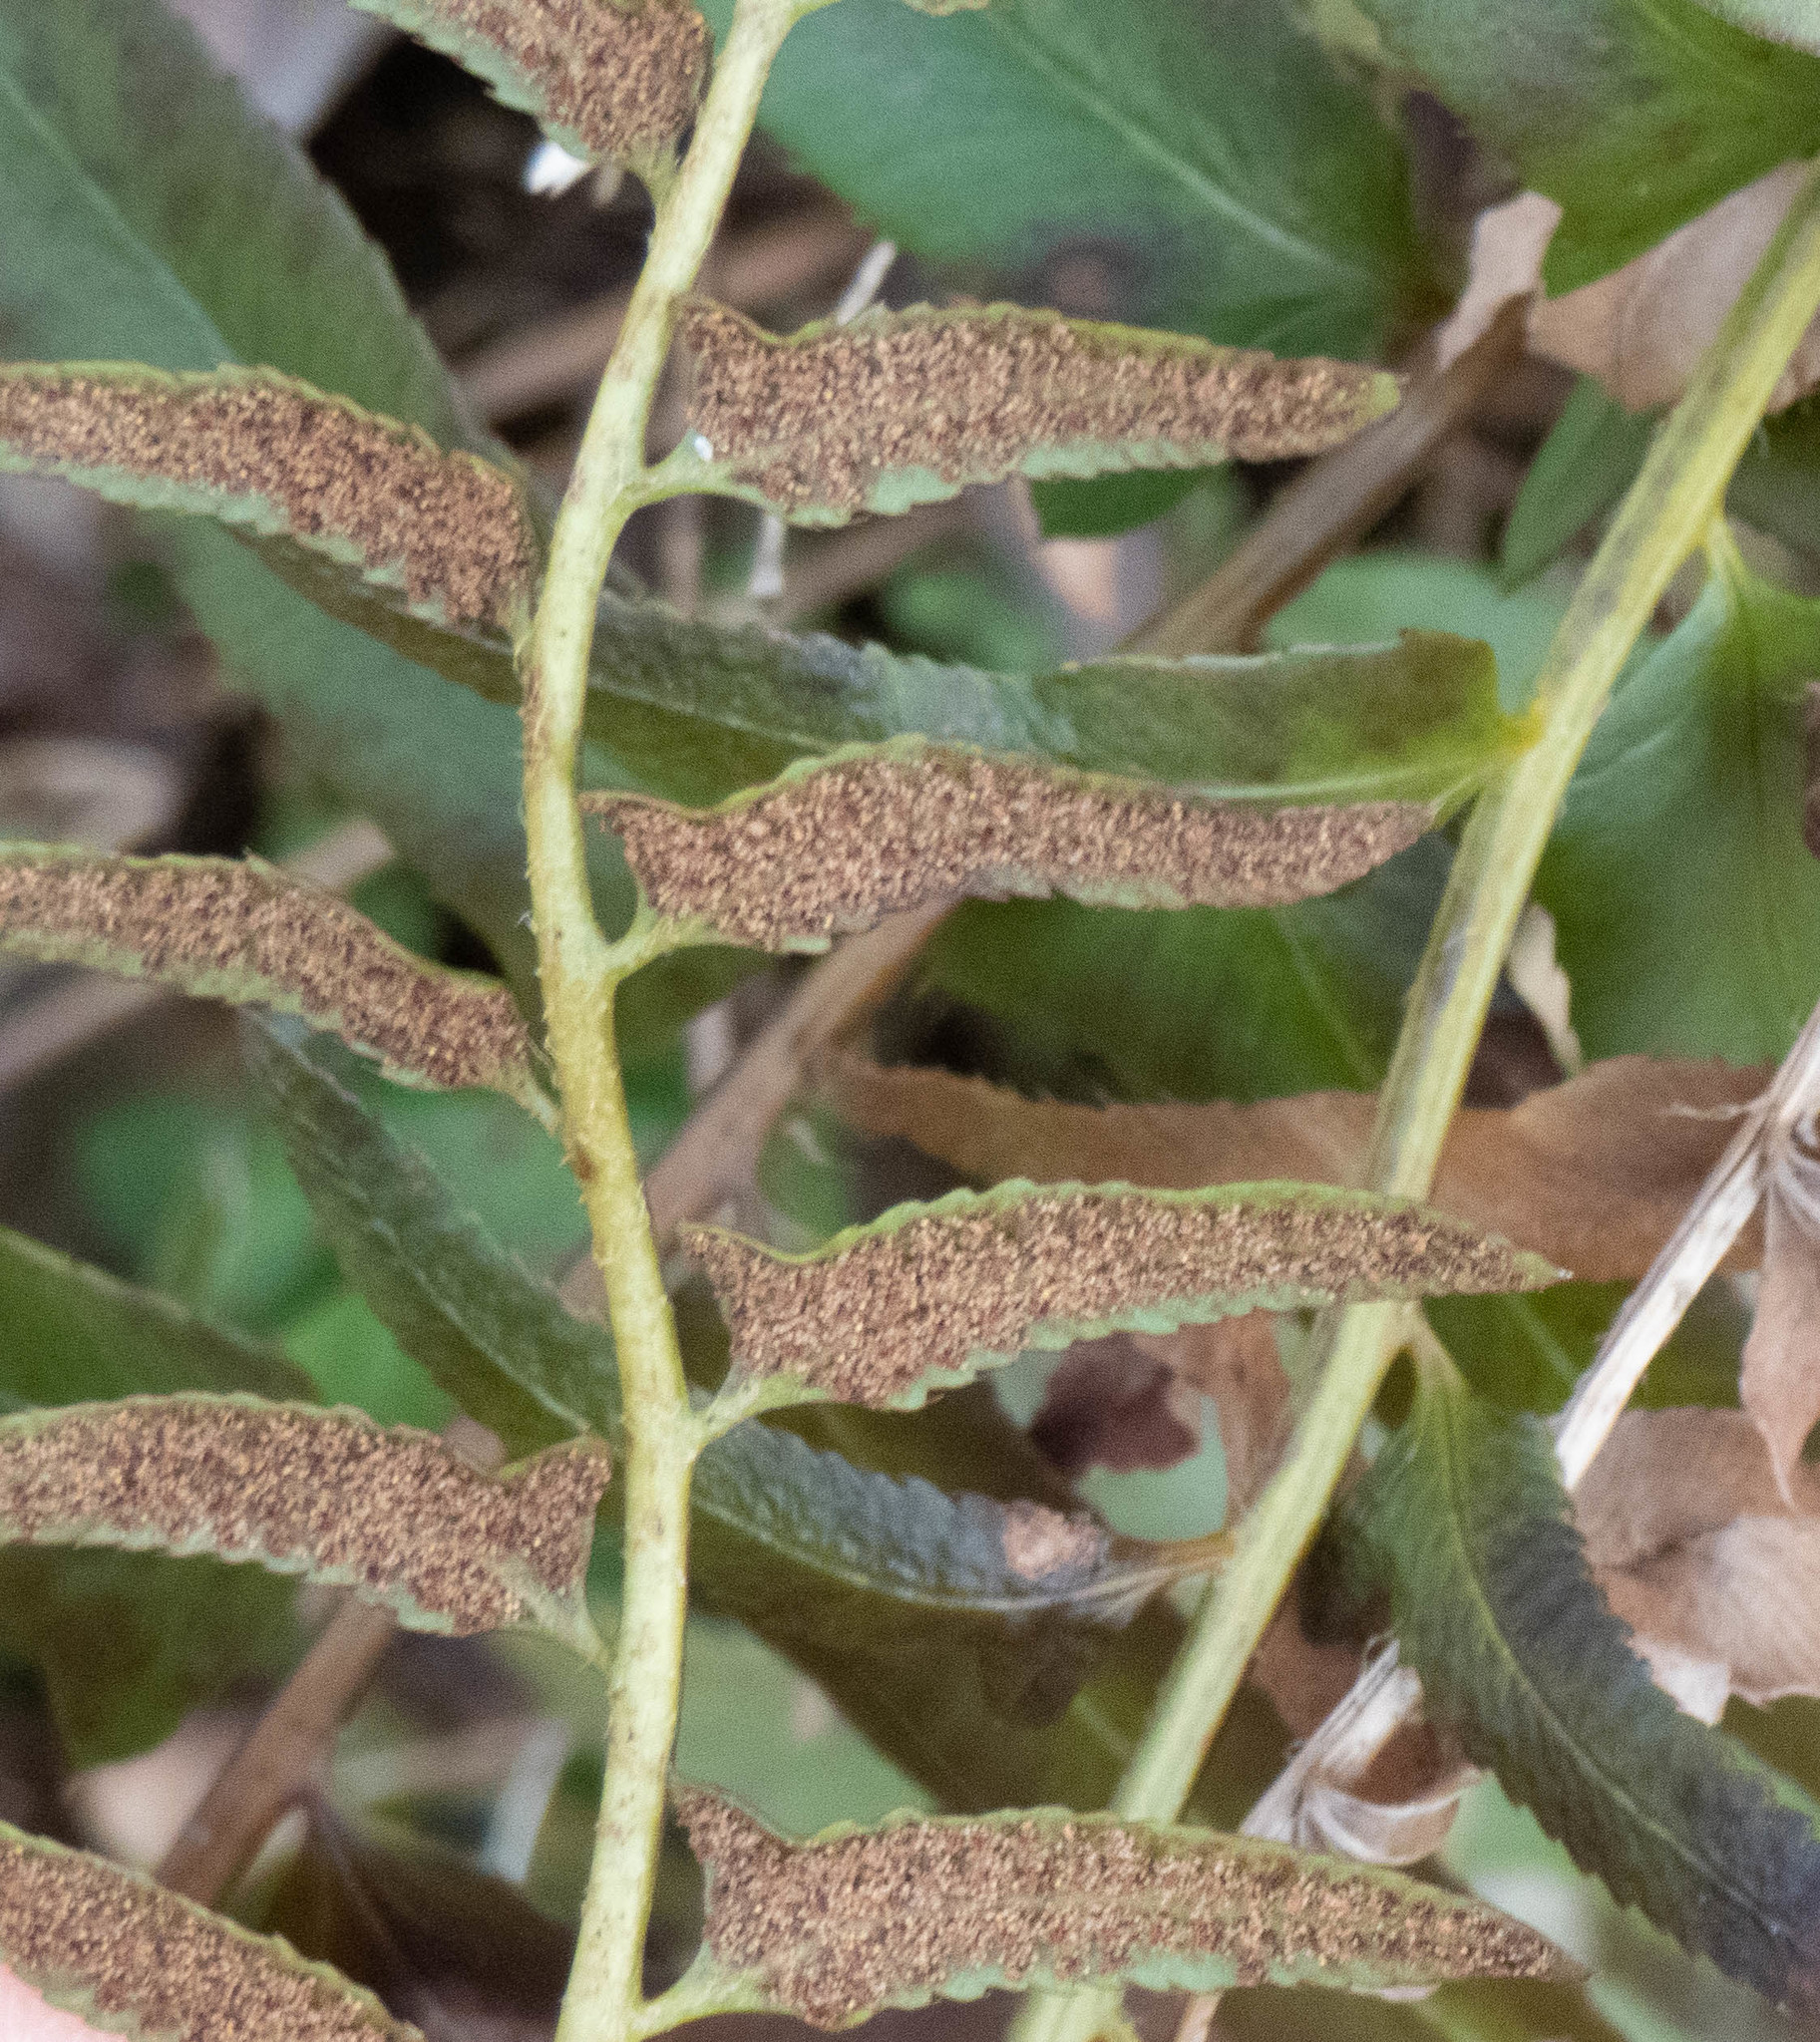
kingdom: Plantae
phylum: Tracheophyta
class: Polypodiopsida
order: Polypodiales
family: Dryopteridaceae
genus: Polystichum
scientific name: Polystichum acrostichoides
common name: Christmas fern
